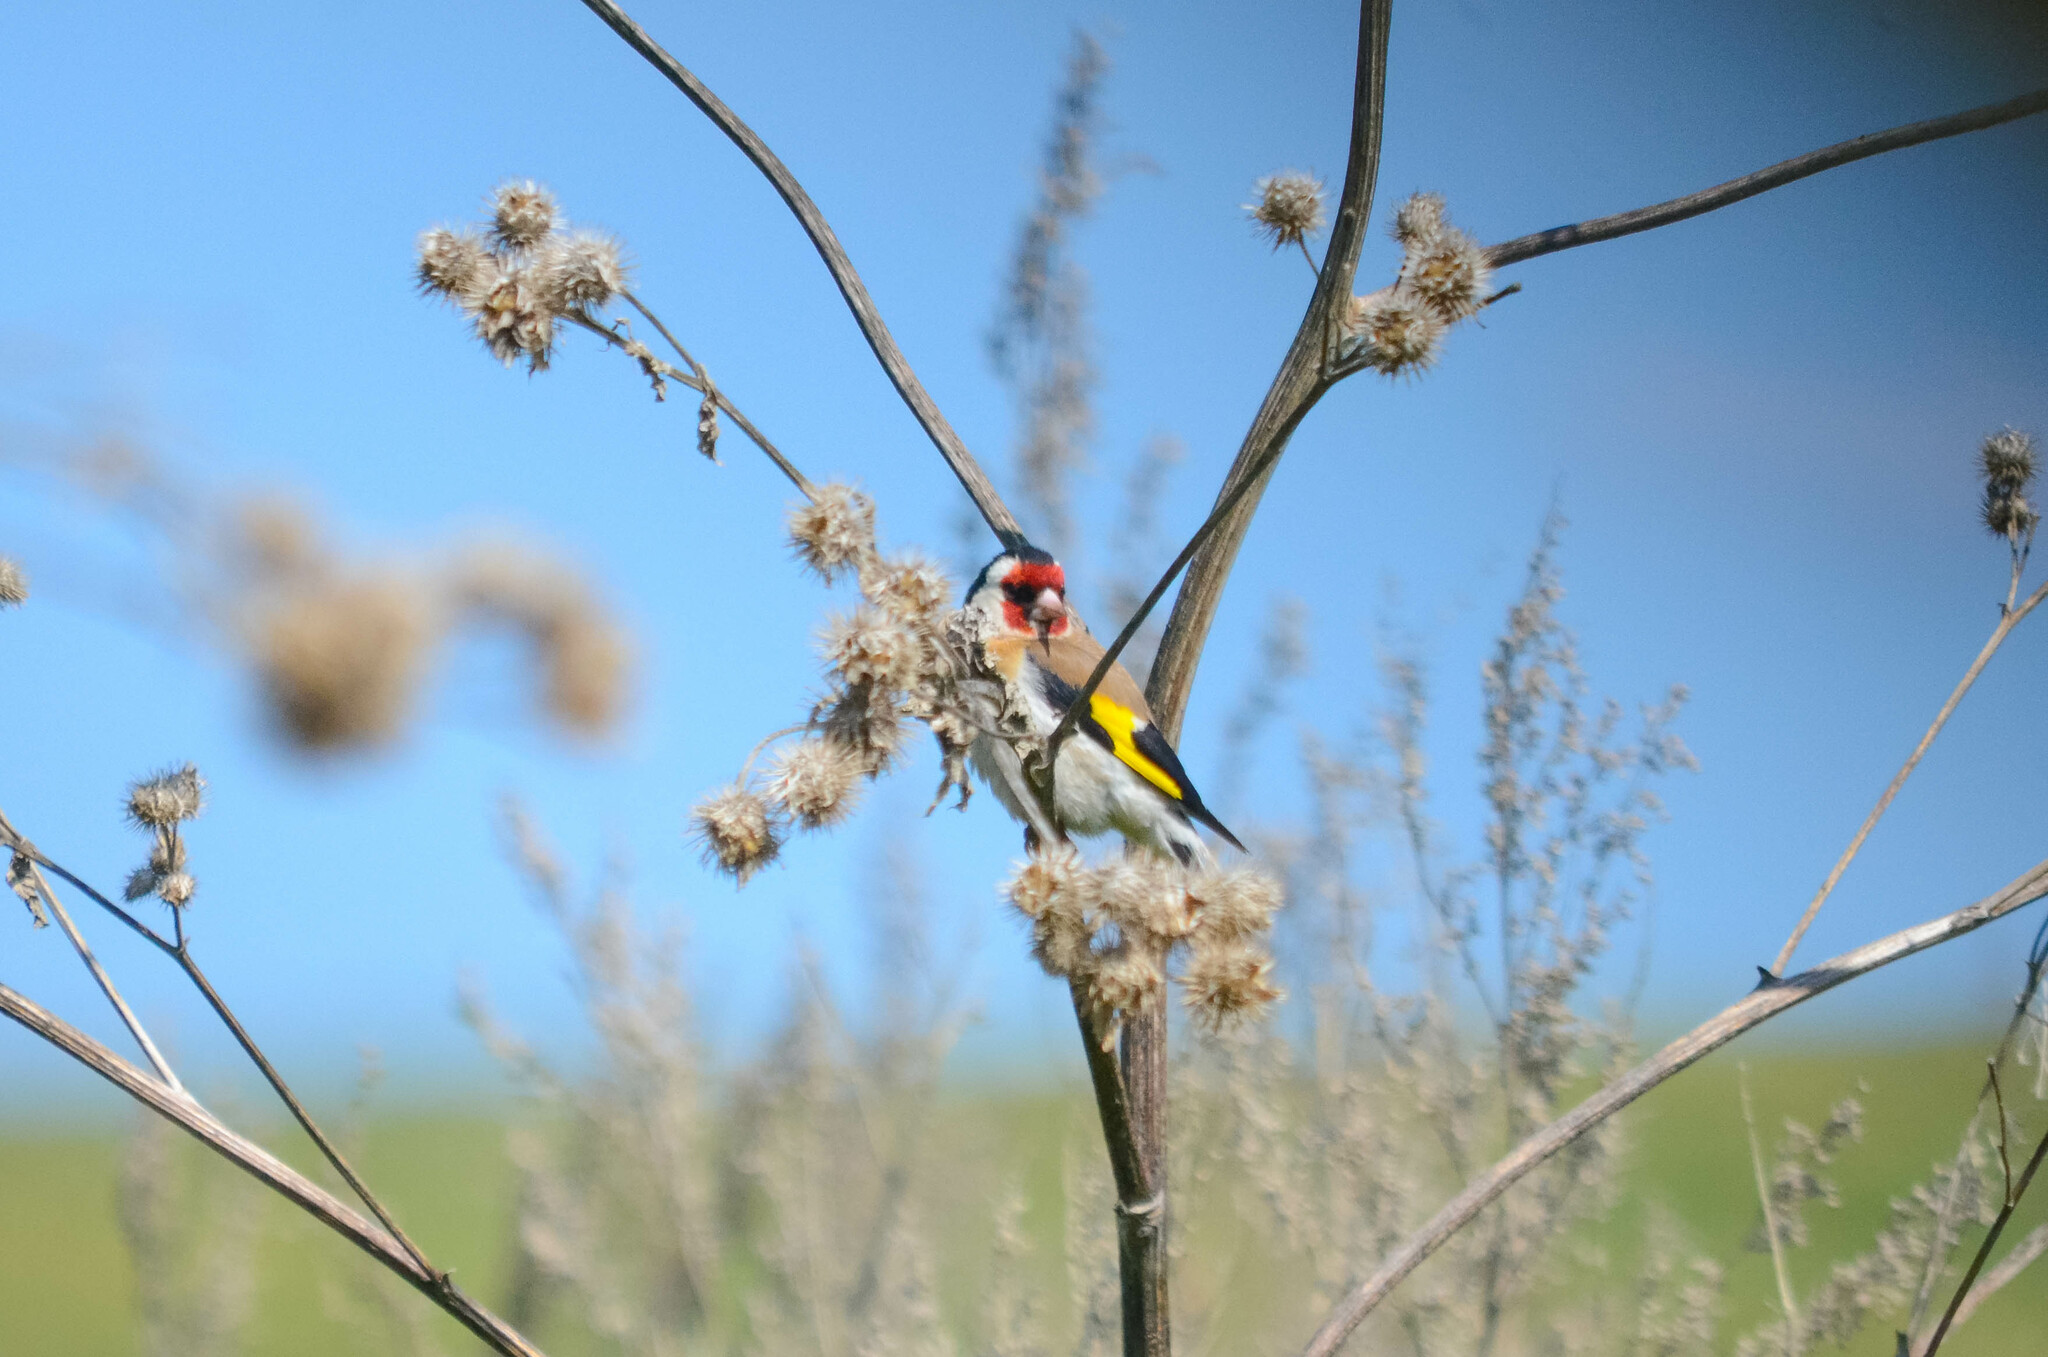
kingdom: Animalia
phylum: Chordata
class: Aves
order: Passeriformes
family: Fringillidae
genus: Carduelis
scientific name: Carduelis carduelis
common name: European goldfinch
